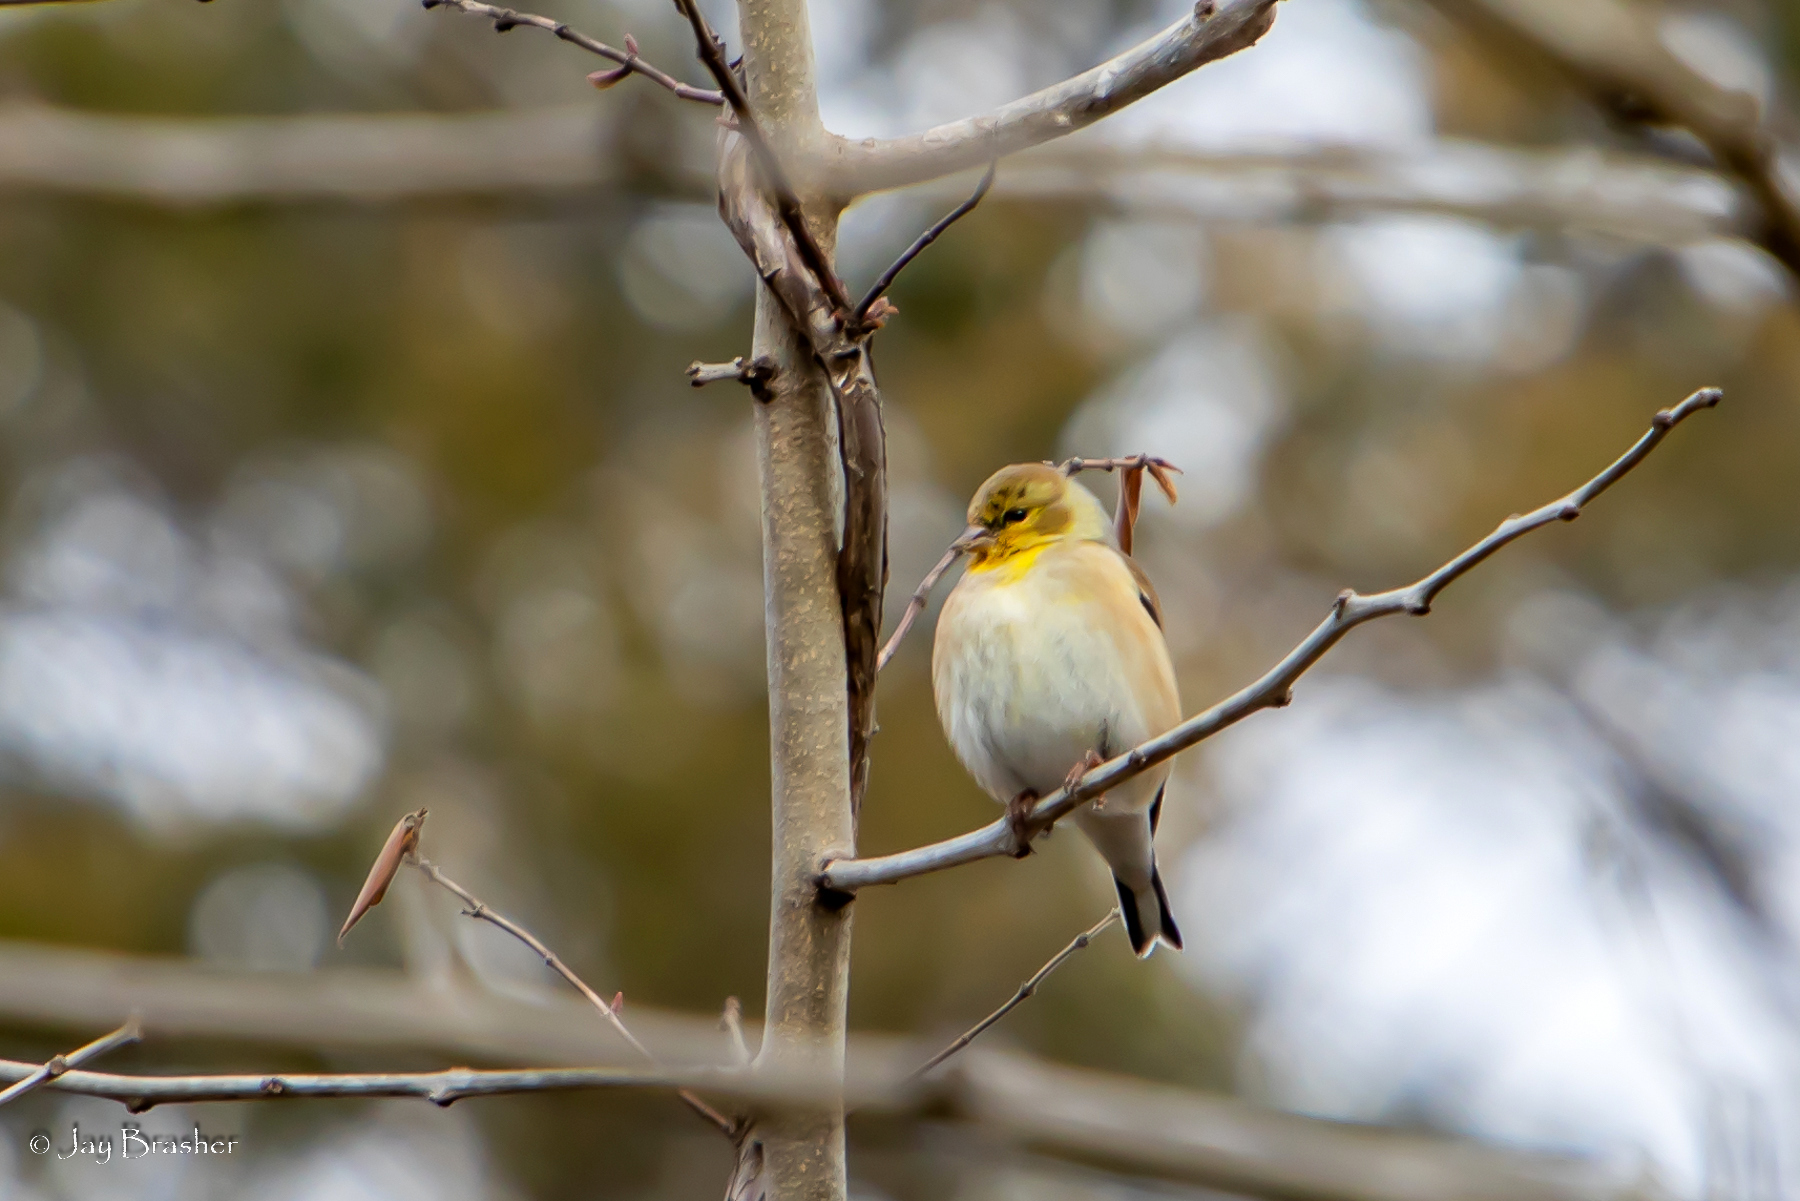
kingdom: Animalia
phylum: Chordata
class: Aves
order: Passeriformes
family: Fringillidae
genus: Spinus
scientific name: Spinus tristis
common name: American goldfinch
